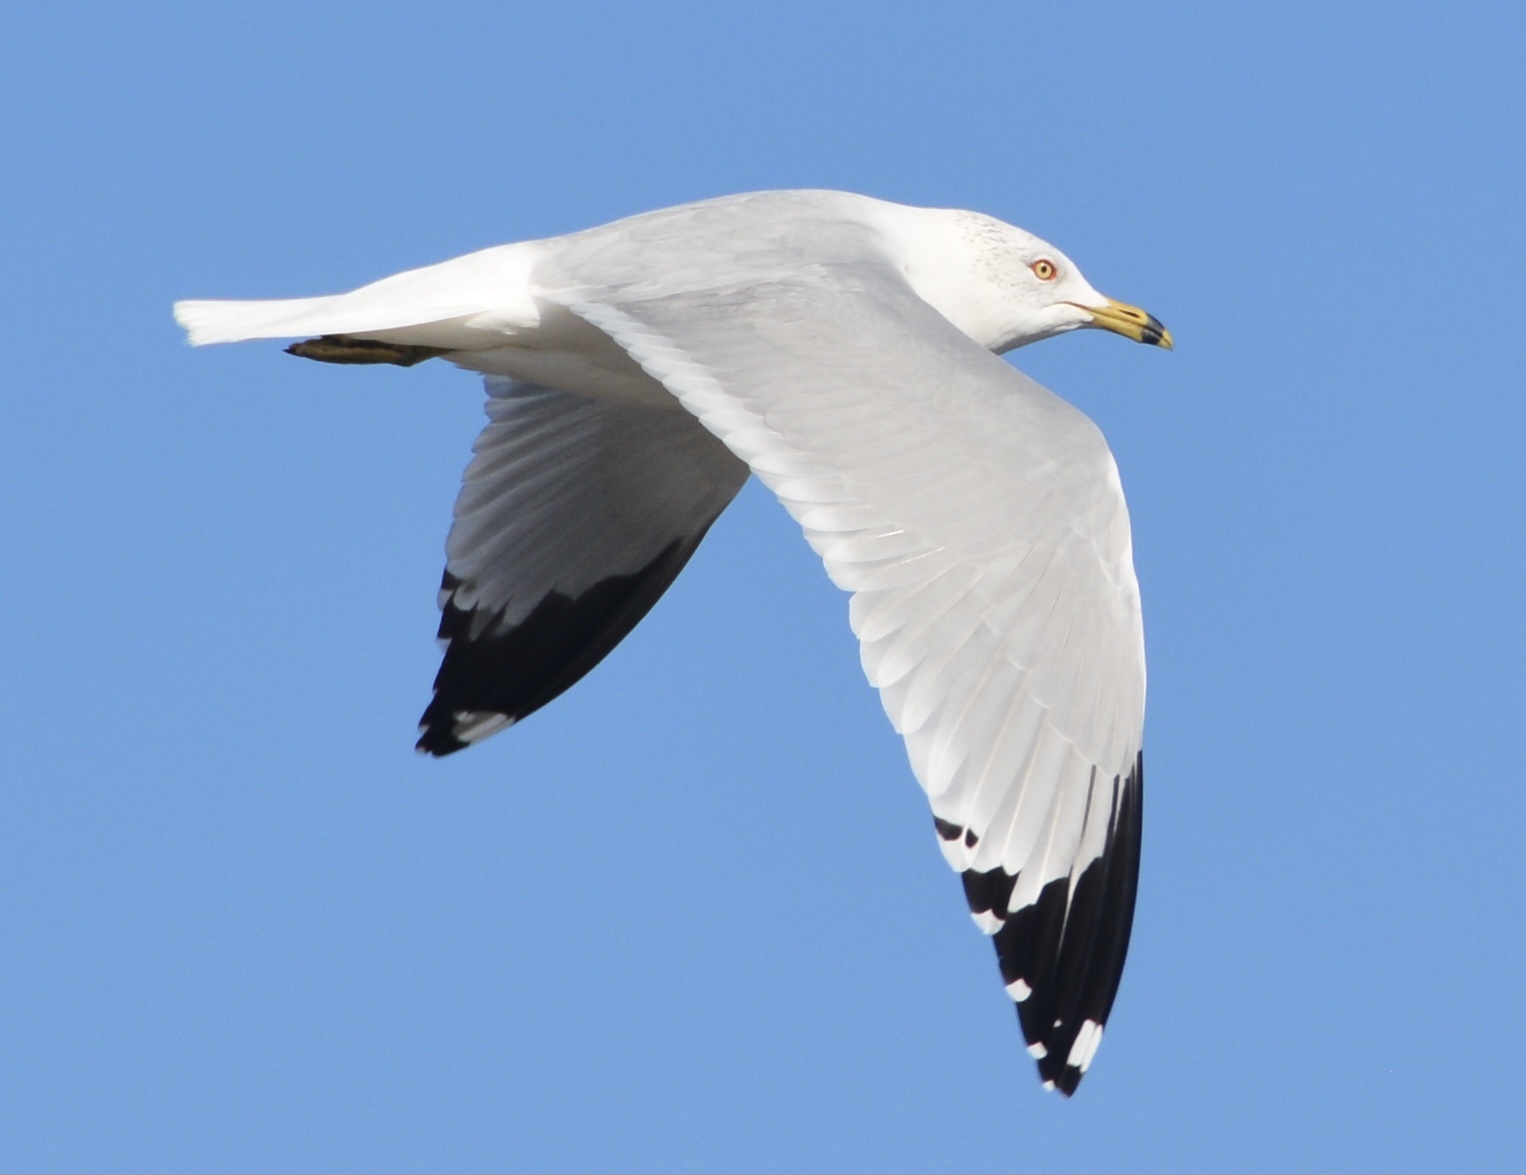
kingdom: Animalia
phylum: Chordata
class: Aves
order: Charadriiformes
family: Laridae
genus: Larus
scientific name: Larus delawarensis
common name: Ring-billed gull
